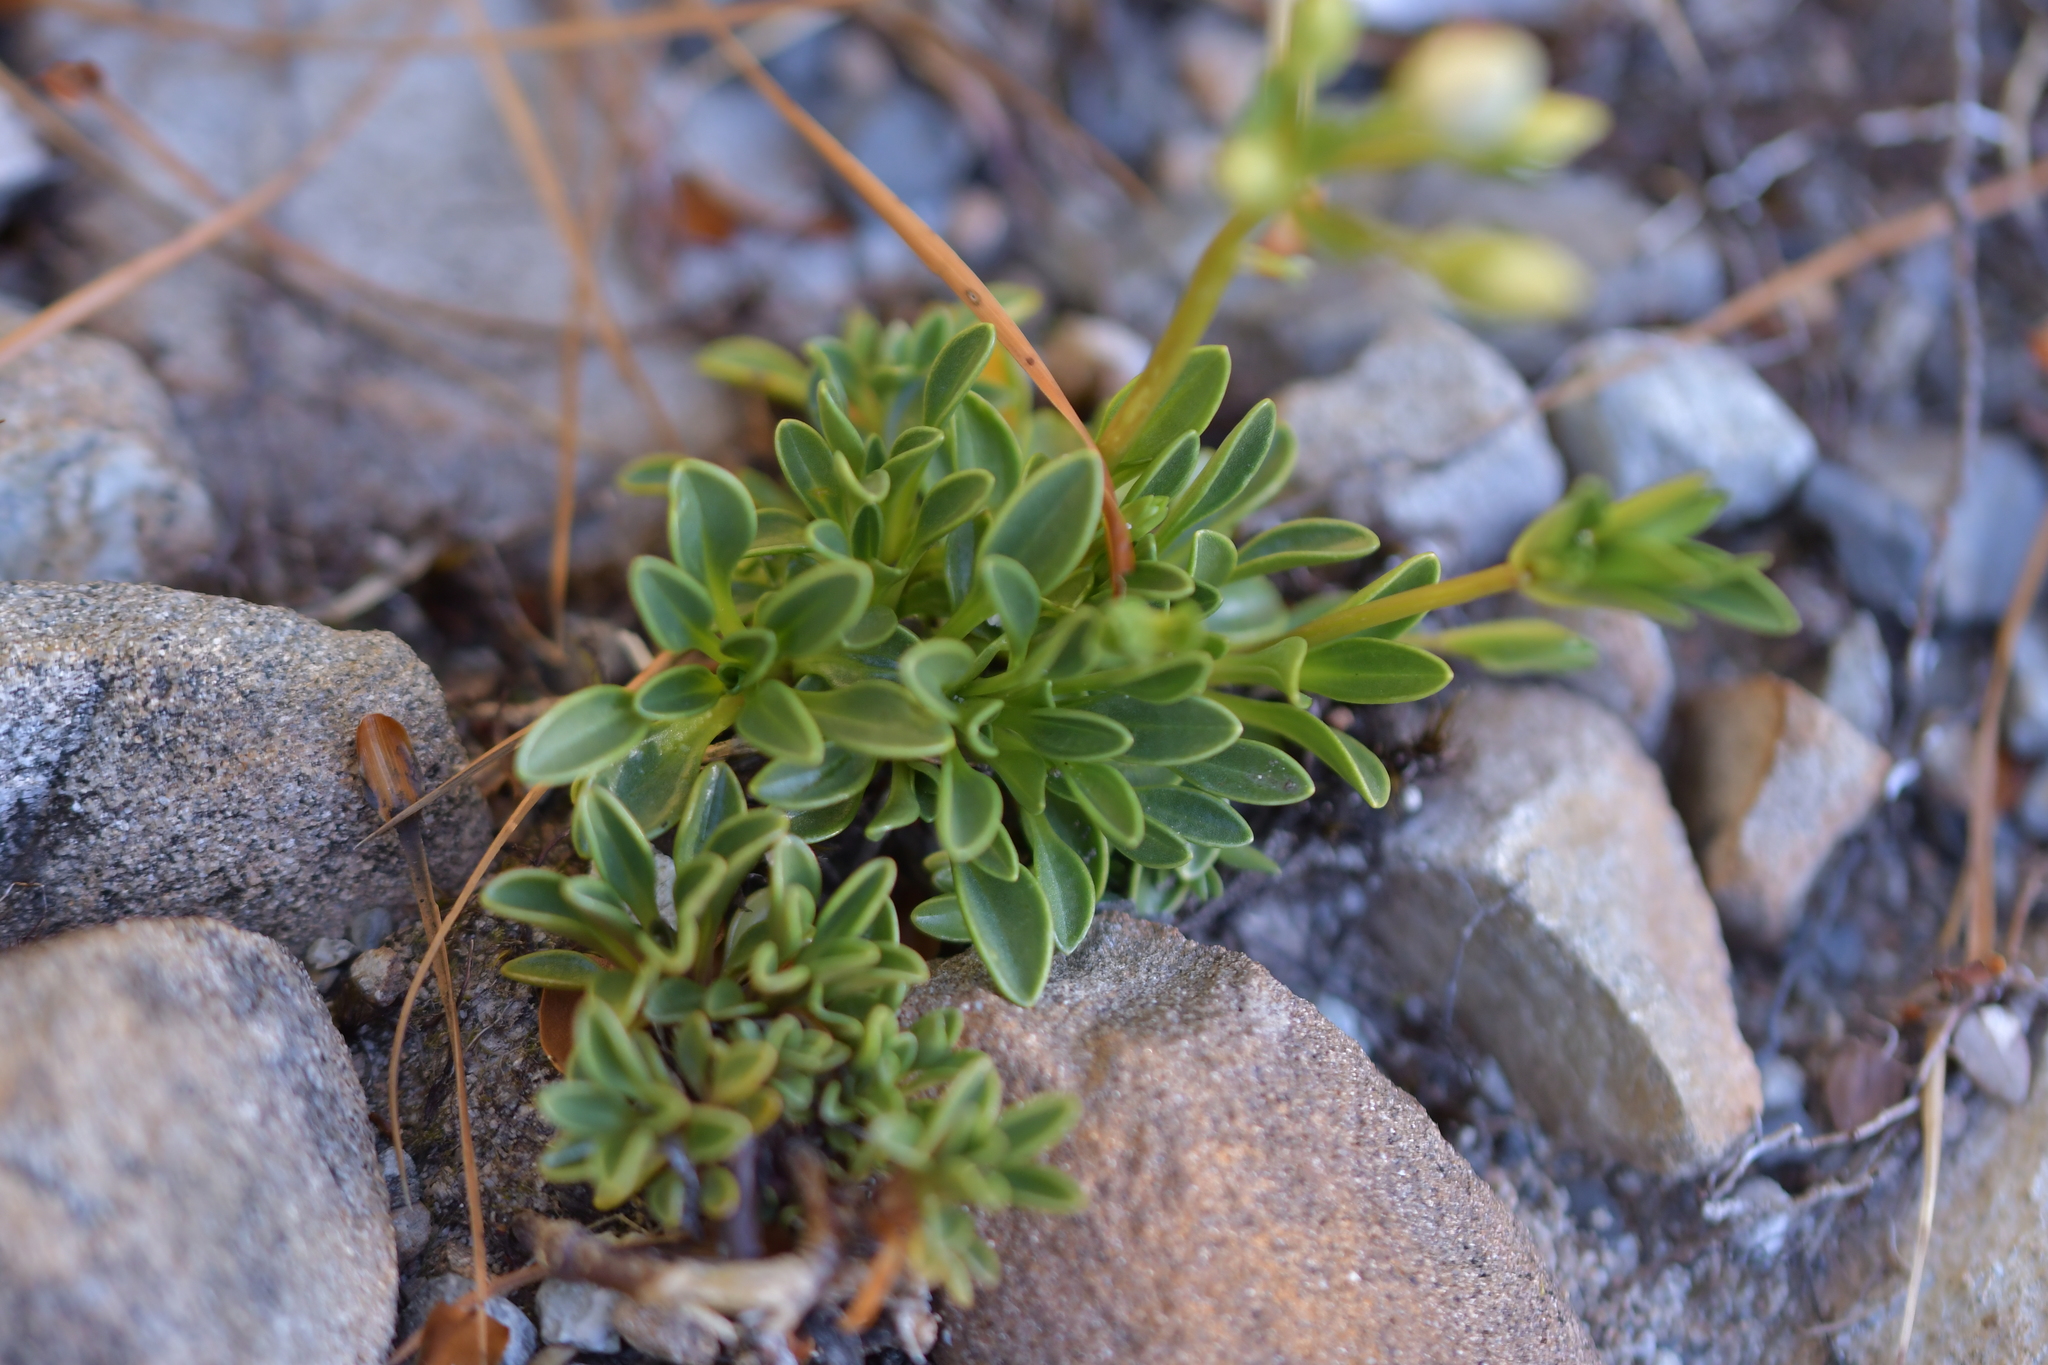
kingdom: Plantae
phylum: Tracheophyta
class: Magnoliopsida
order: Gentianales
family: Gentianaceae
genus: Gentianella
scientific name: Gentianella bellidifolia
